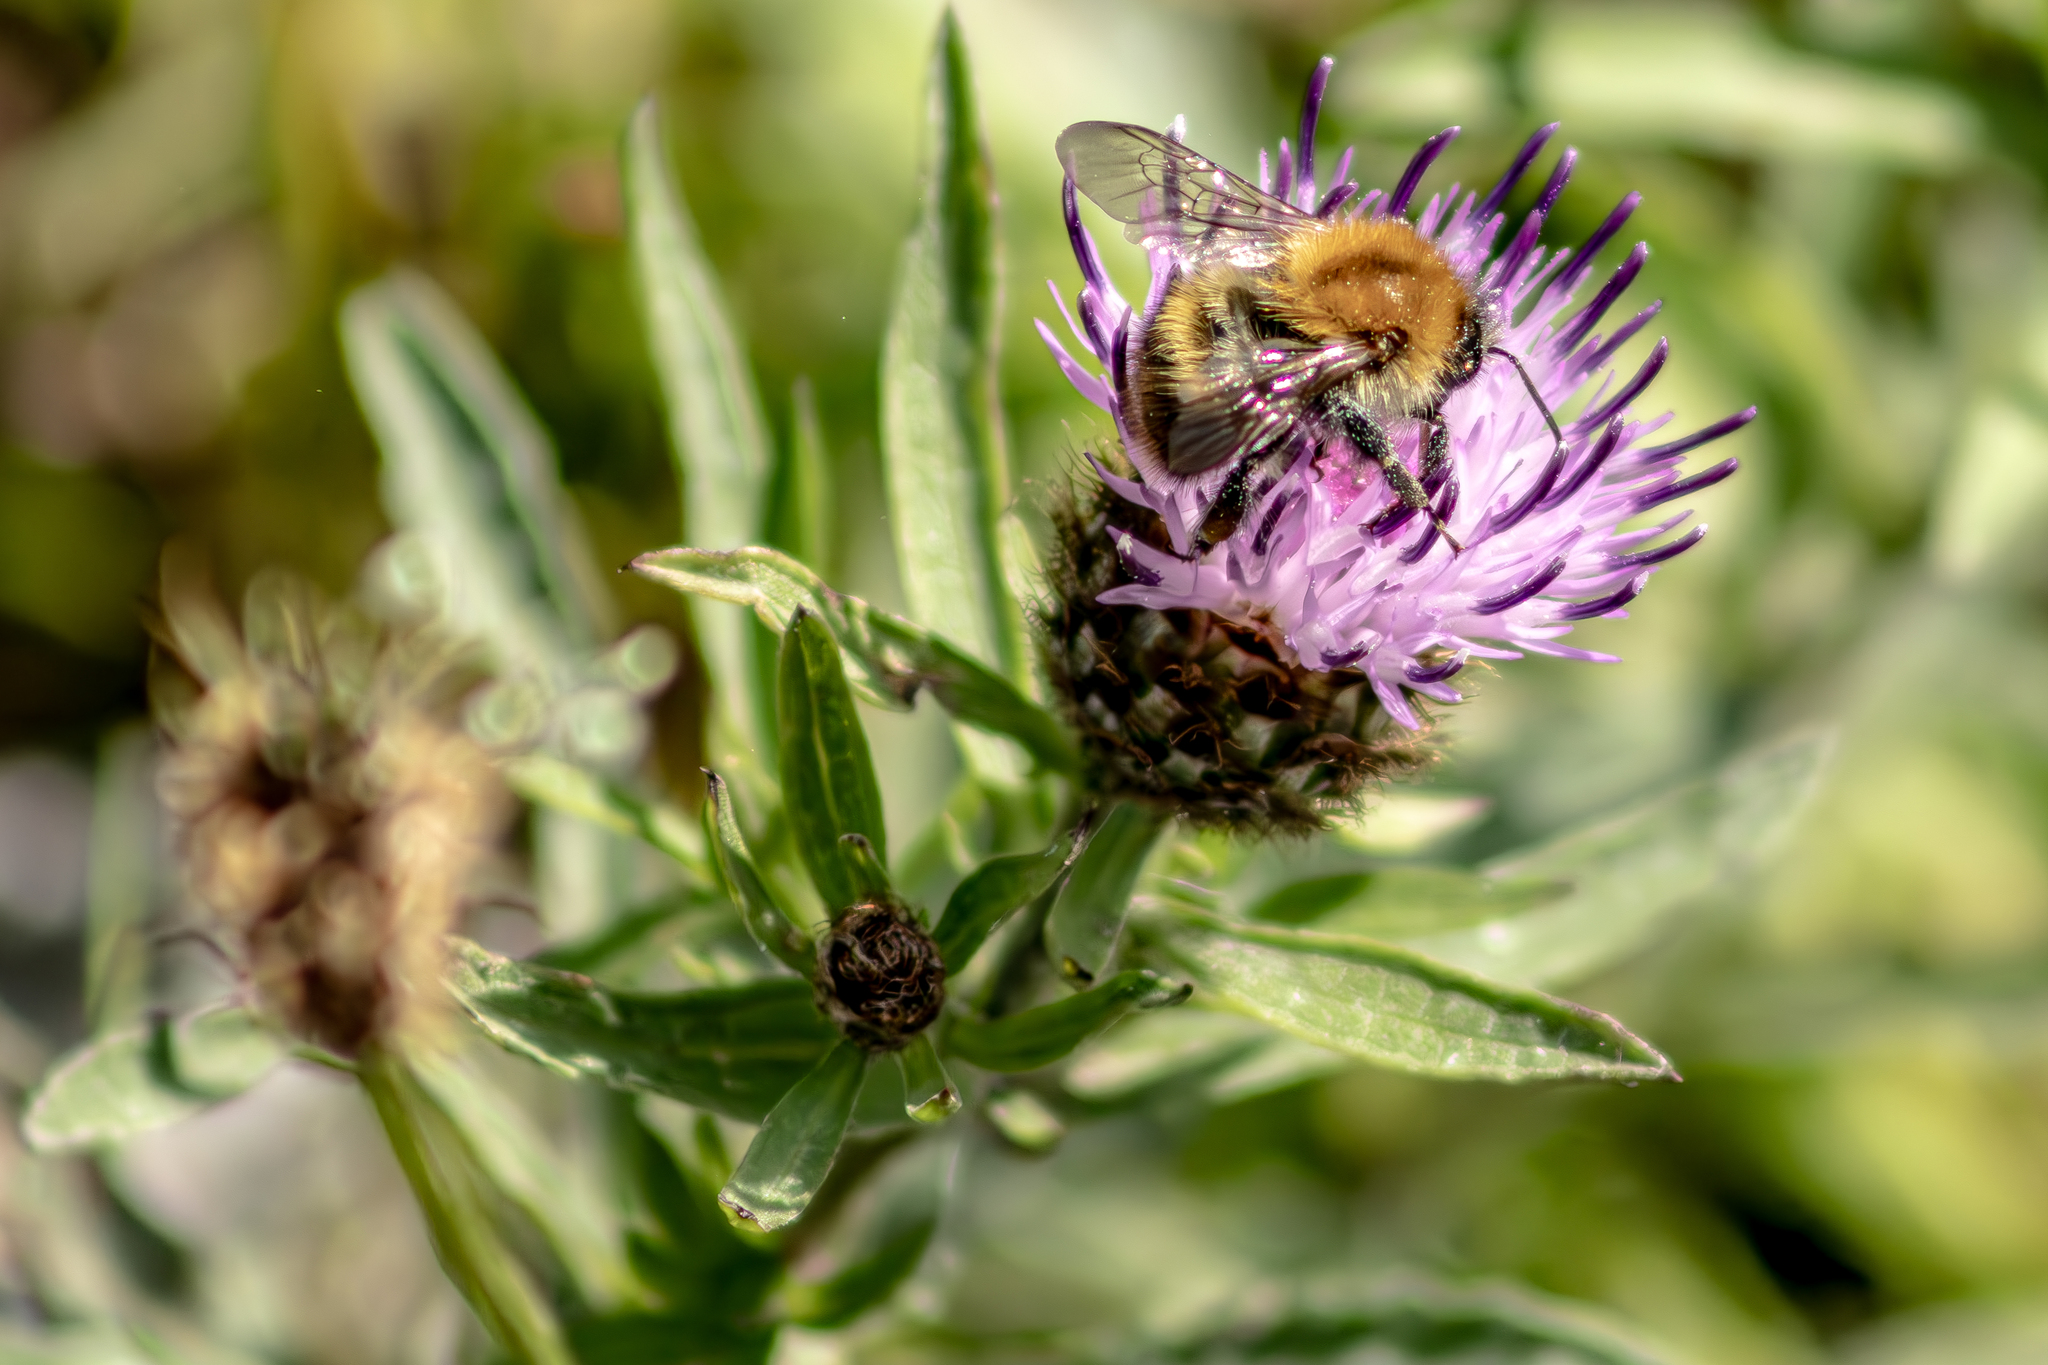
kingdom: Animalia
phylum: Arthropoda
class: Insecta
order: Hymenoptera
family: Apidae
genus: Bombus
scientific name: Bombus pascuorum
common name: Common carder bee
